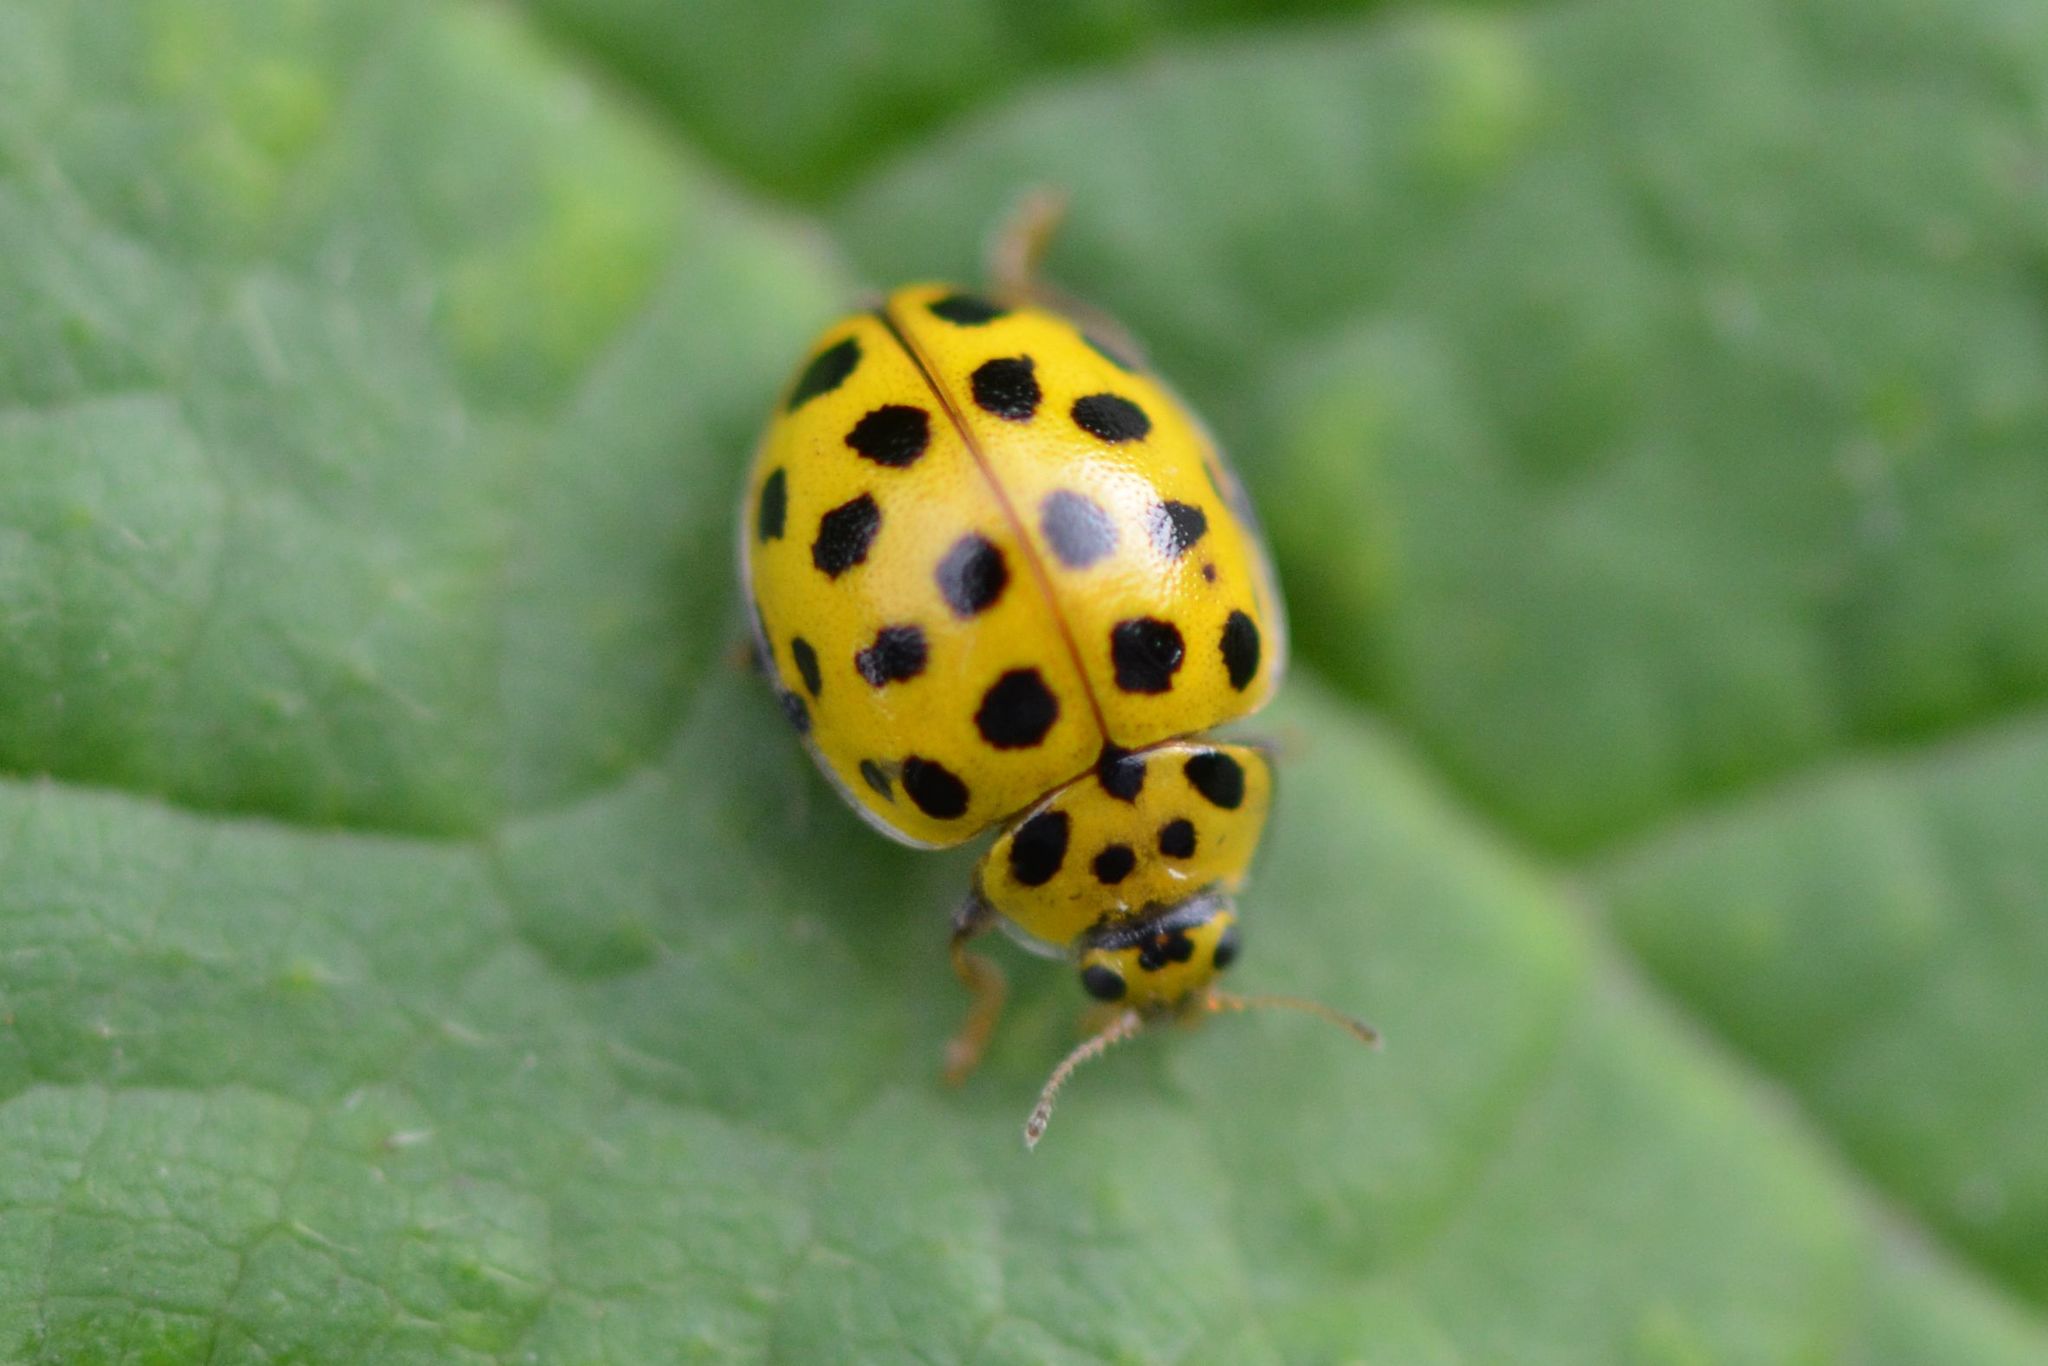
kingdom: Animalia
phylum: Arthropoda
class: Insecta
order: Coleoptera
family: Coccinellidae
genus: Psyllobora
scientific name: Psyllobora vigintiduopunctata
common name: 22-spot ladybird
